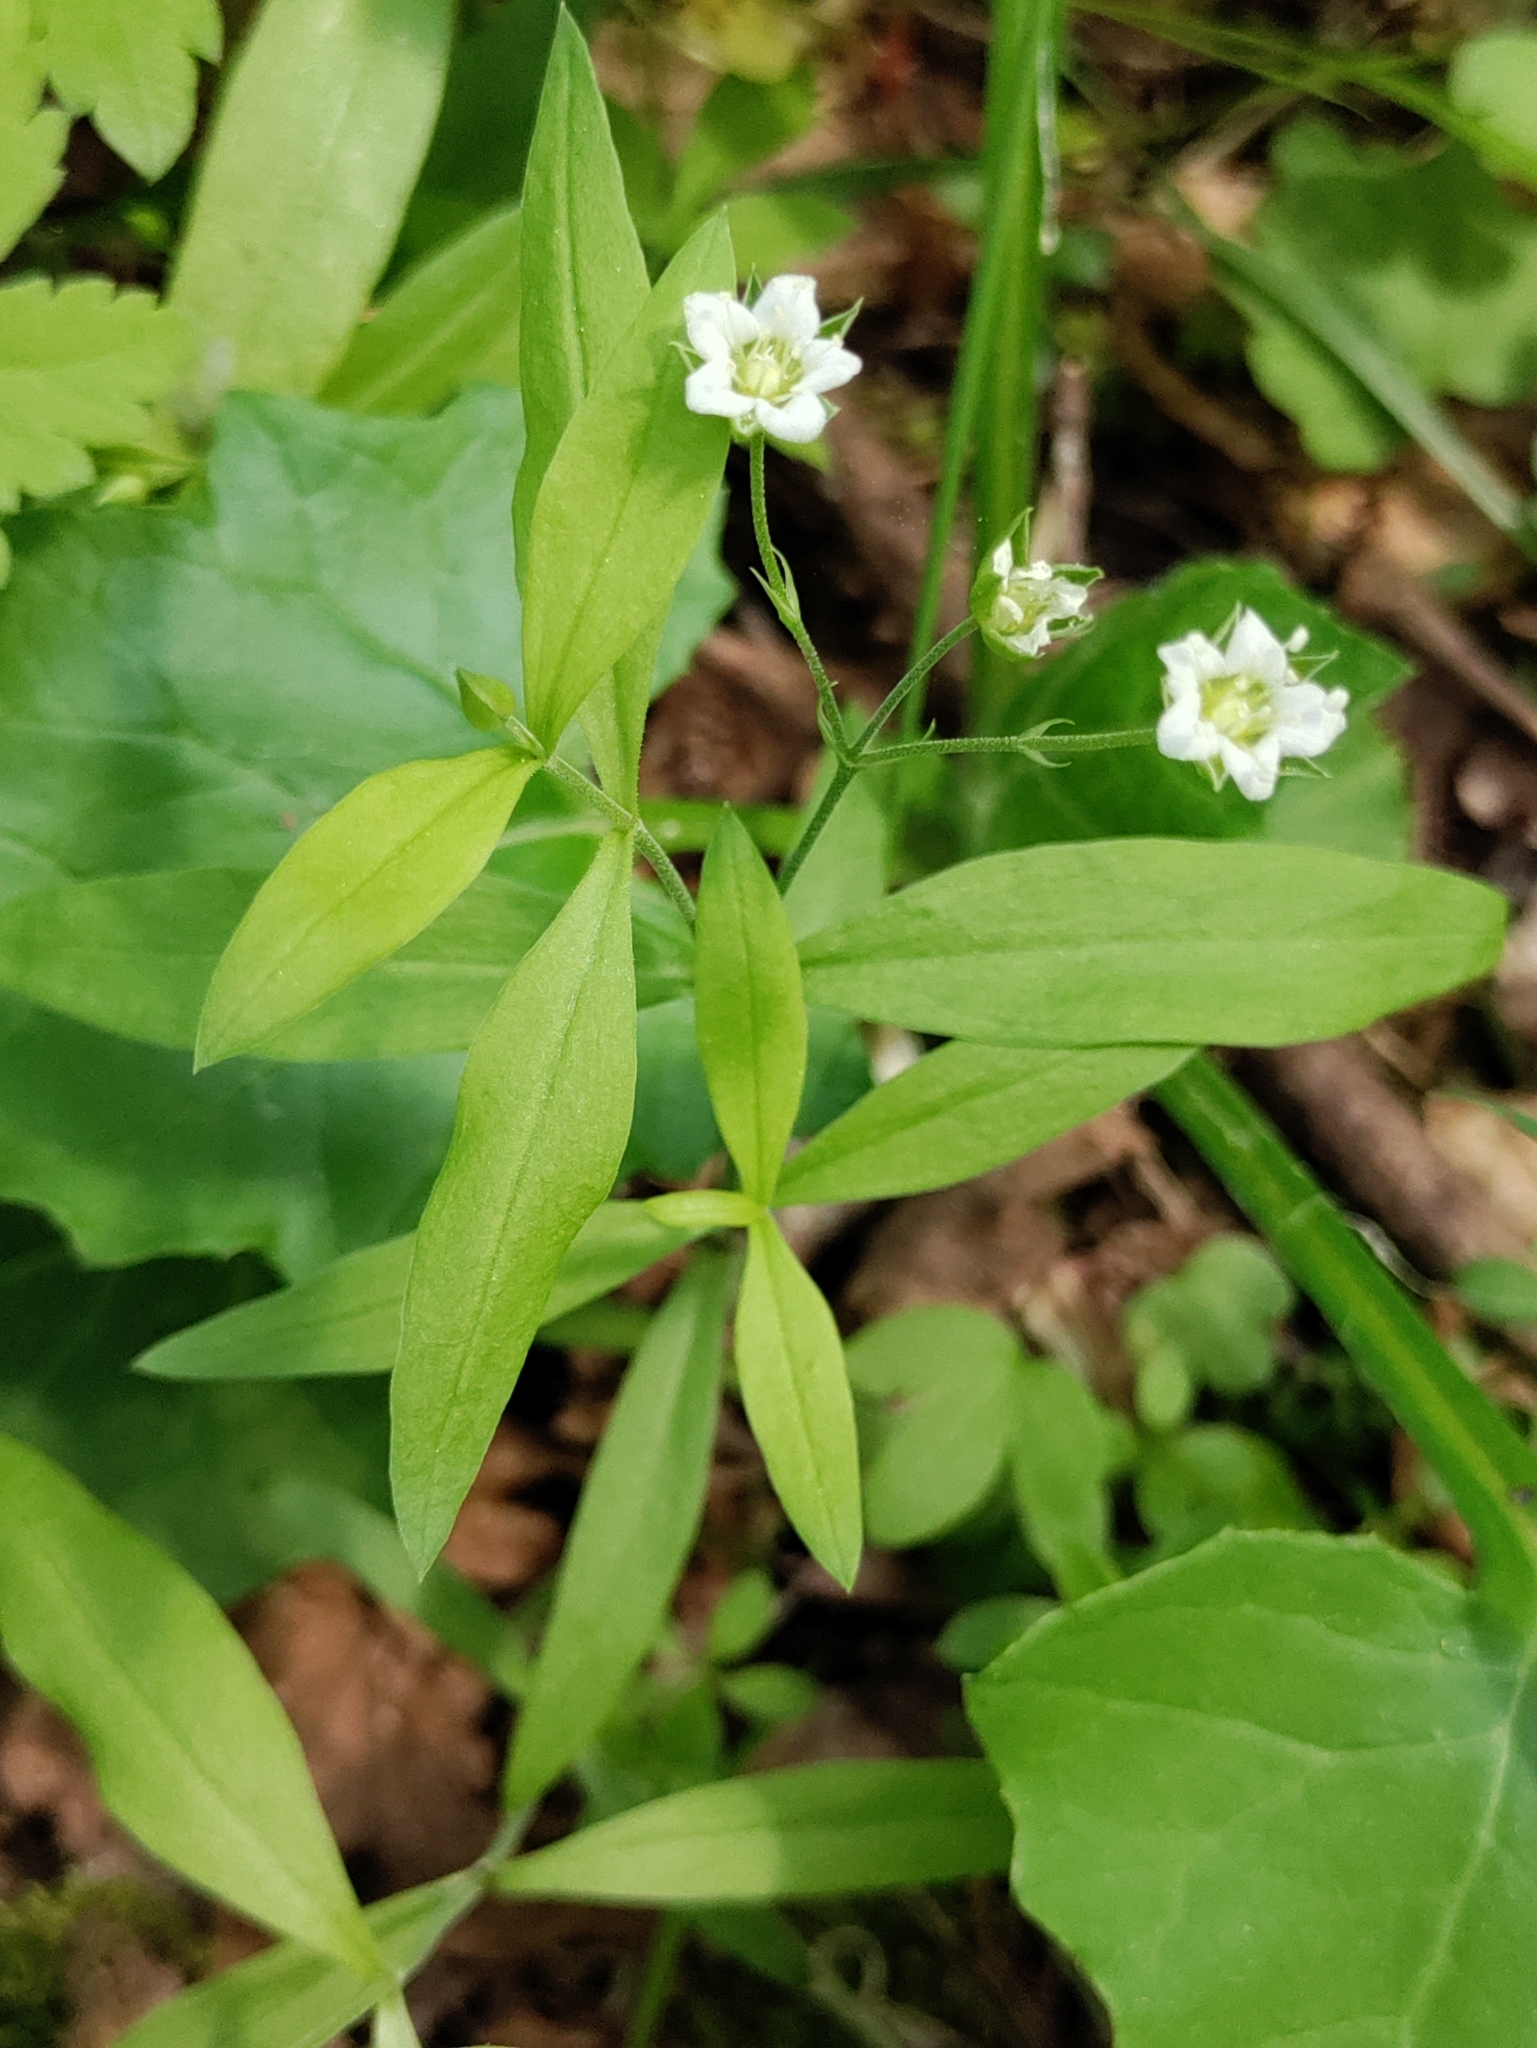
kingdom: Plantae
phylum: Tracheophyta
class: Magnoliopsida
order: Caryophyllales
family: Caryophyllaceae
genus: Moehringia
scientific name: Moehringia macrophylla
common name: Big-leaf sandwort
